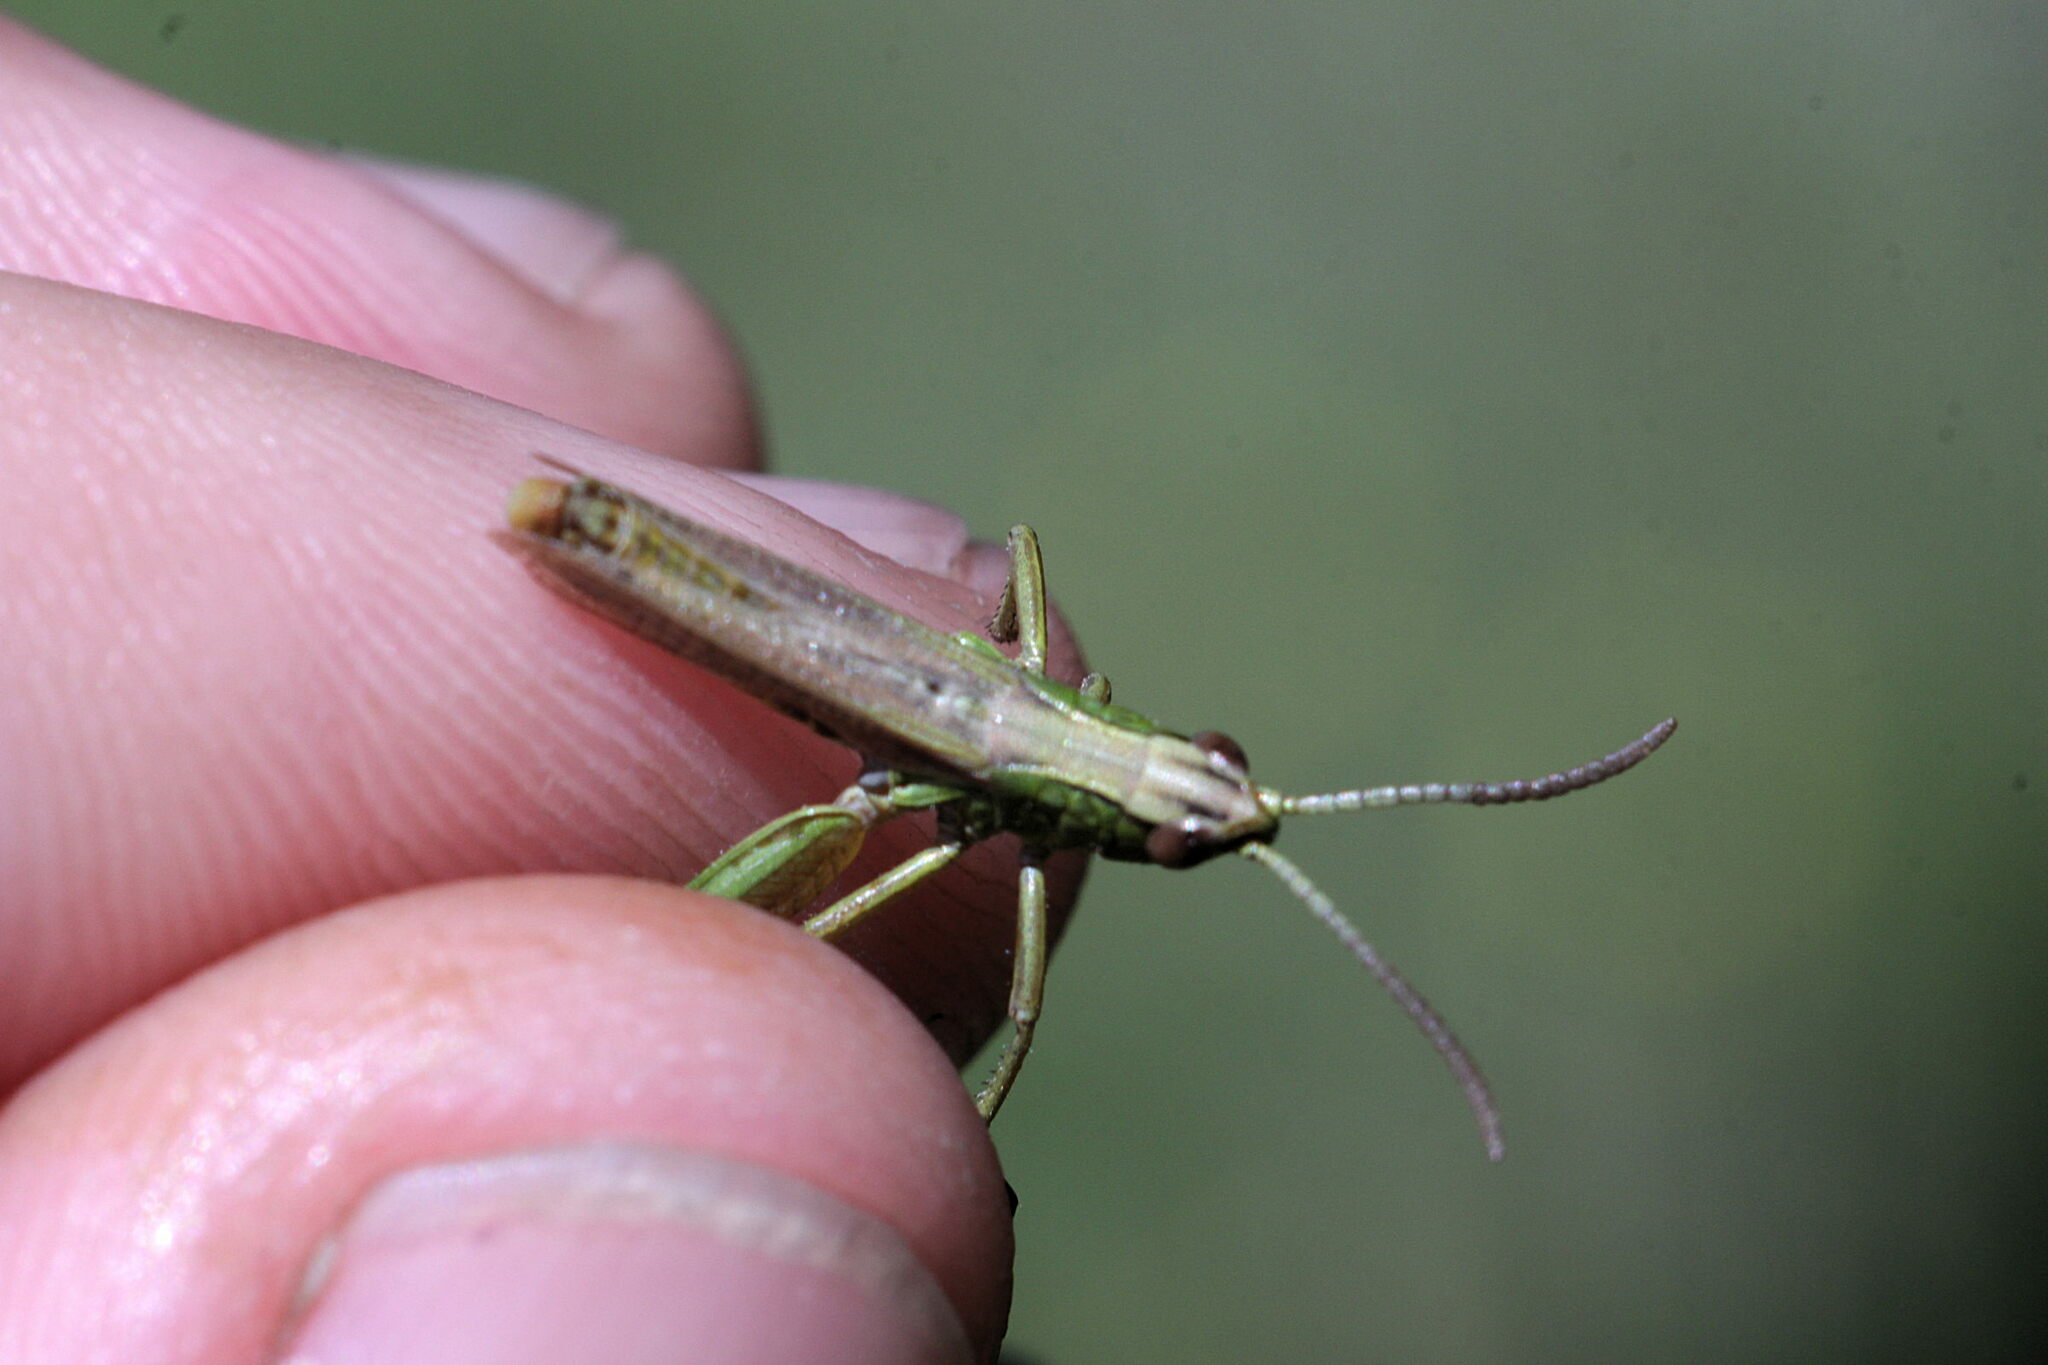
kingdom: Animalia
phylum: Arthropoda
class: Insecta
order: Orthoptera
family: Acrididae
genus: Pseudochorthippus
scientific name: Pseudochorthippus parallelus
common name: Meadow grasshopper
